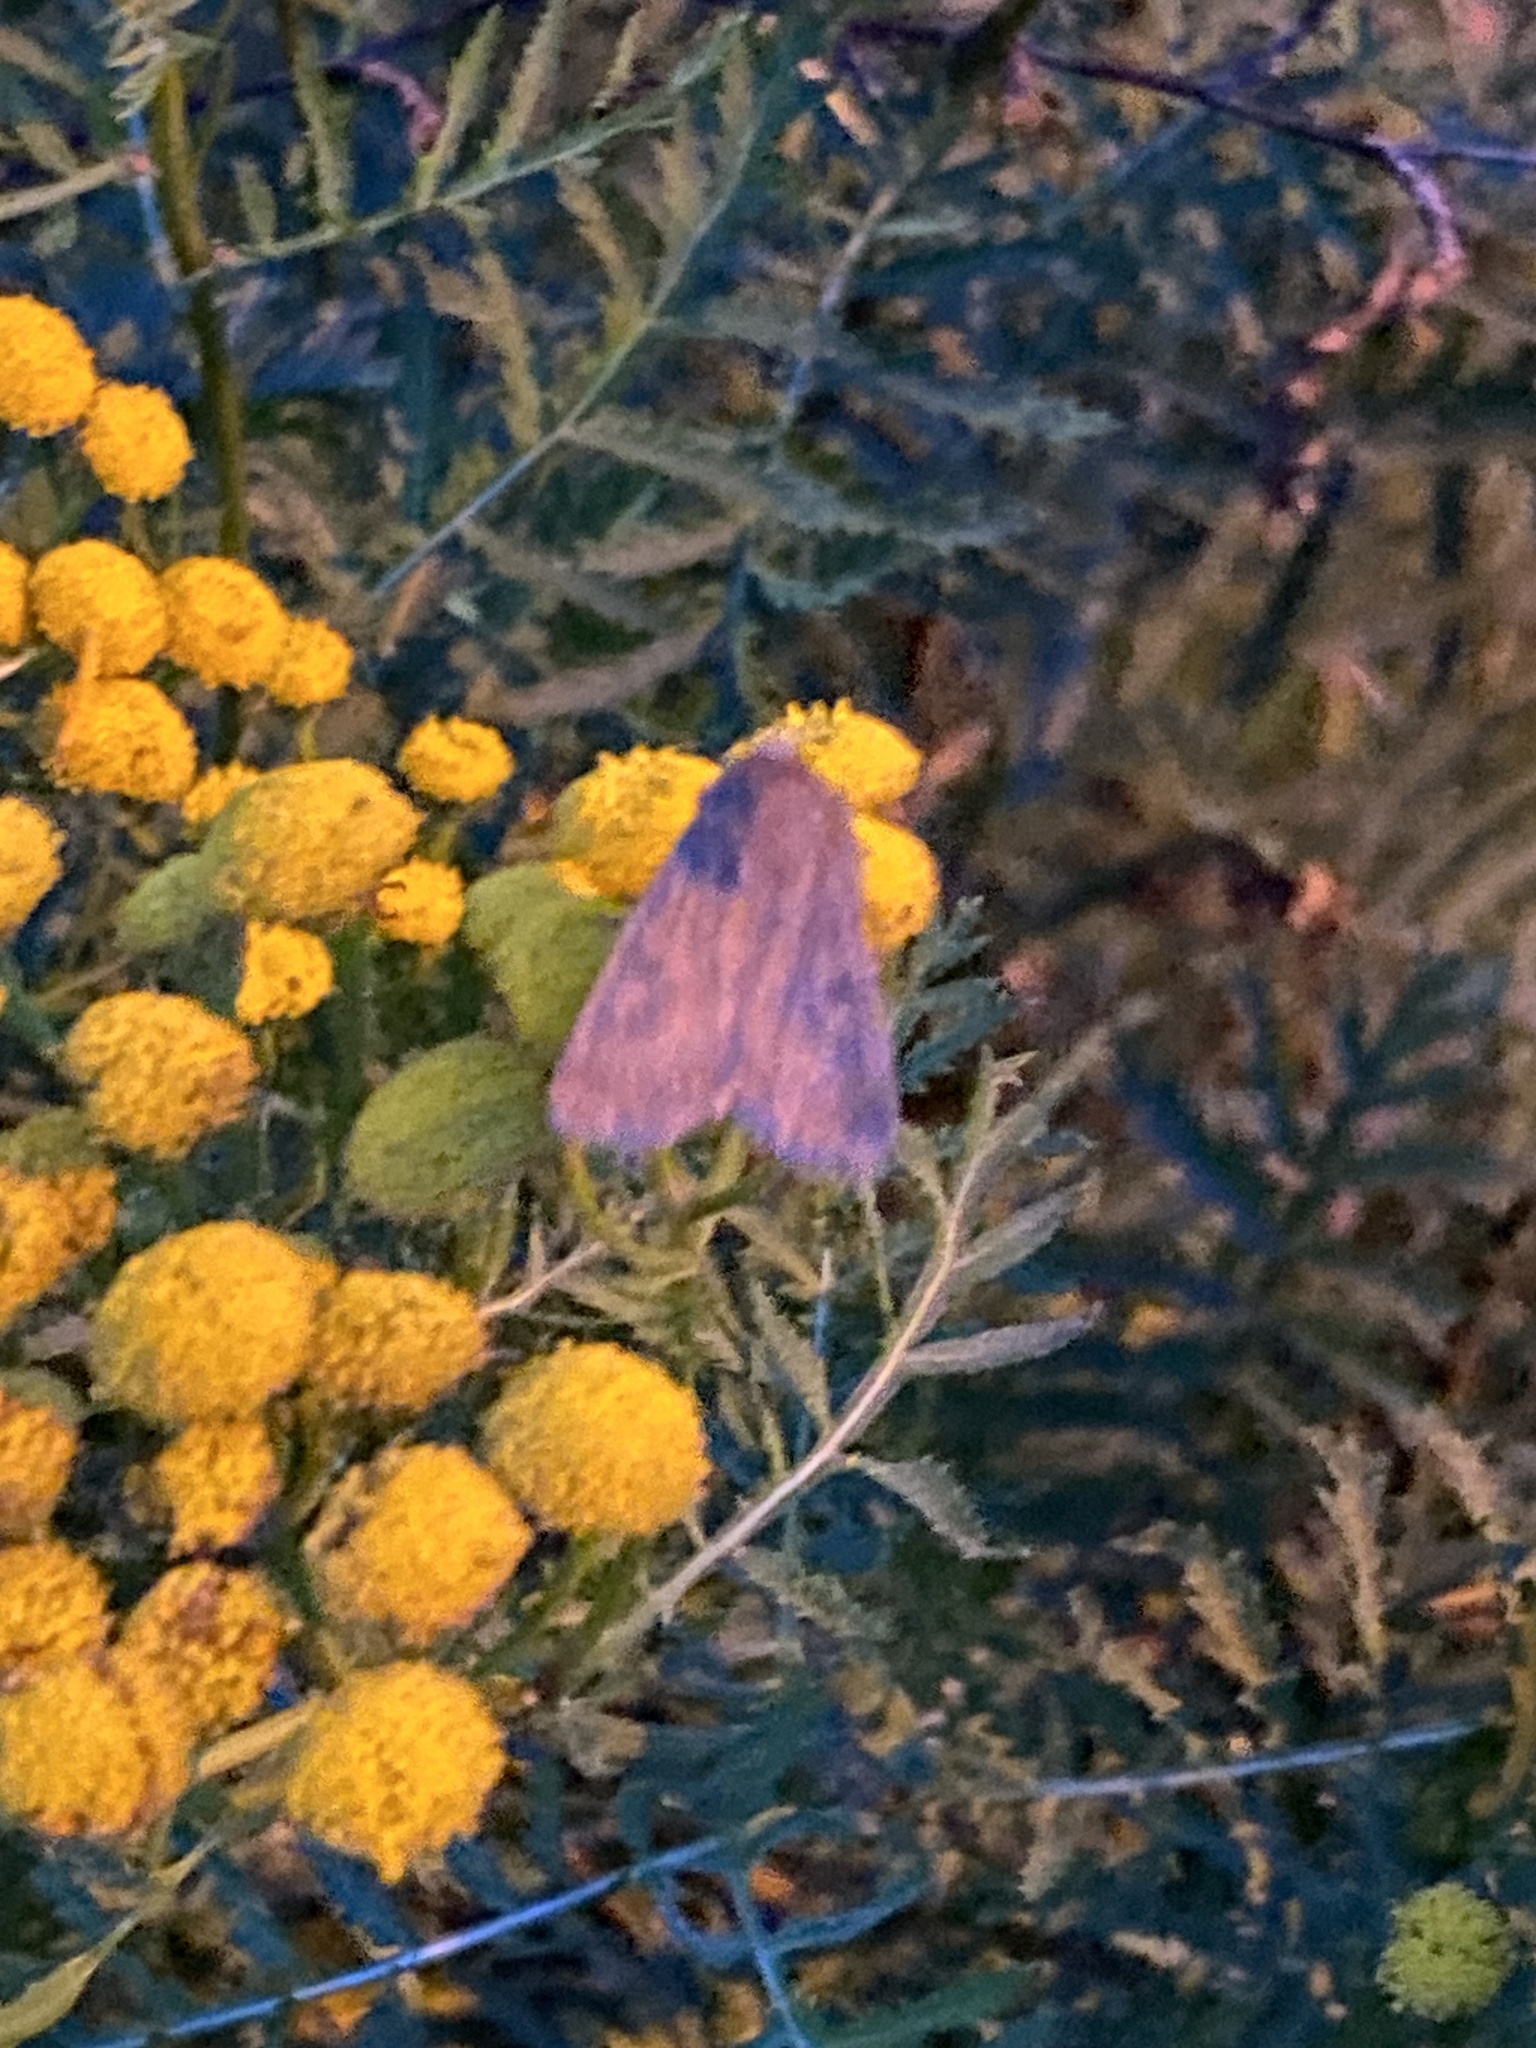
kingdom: Animalia
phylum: Arthropoda
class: Insecta
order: Lepidoptera
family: Noctuidae
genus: Xestia
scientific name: Xestia xanthographa
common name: Square-spot rustic
